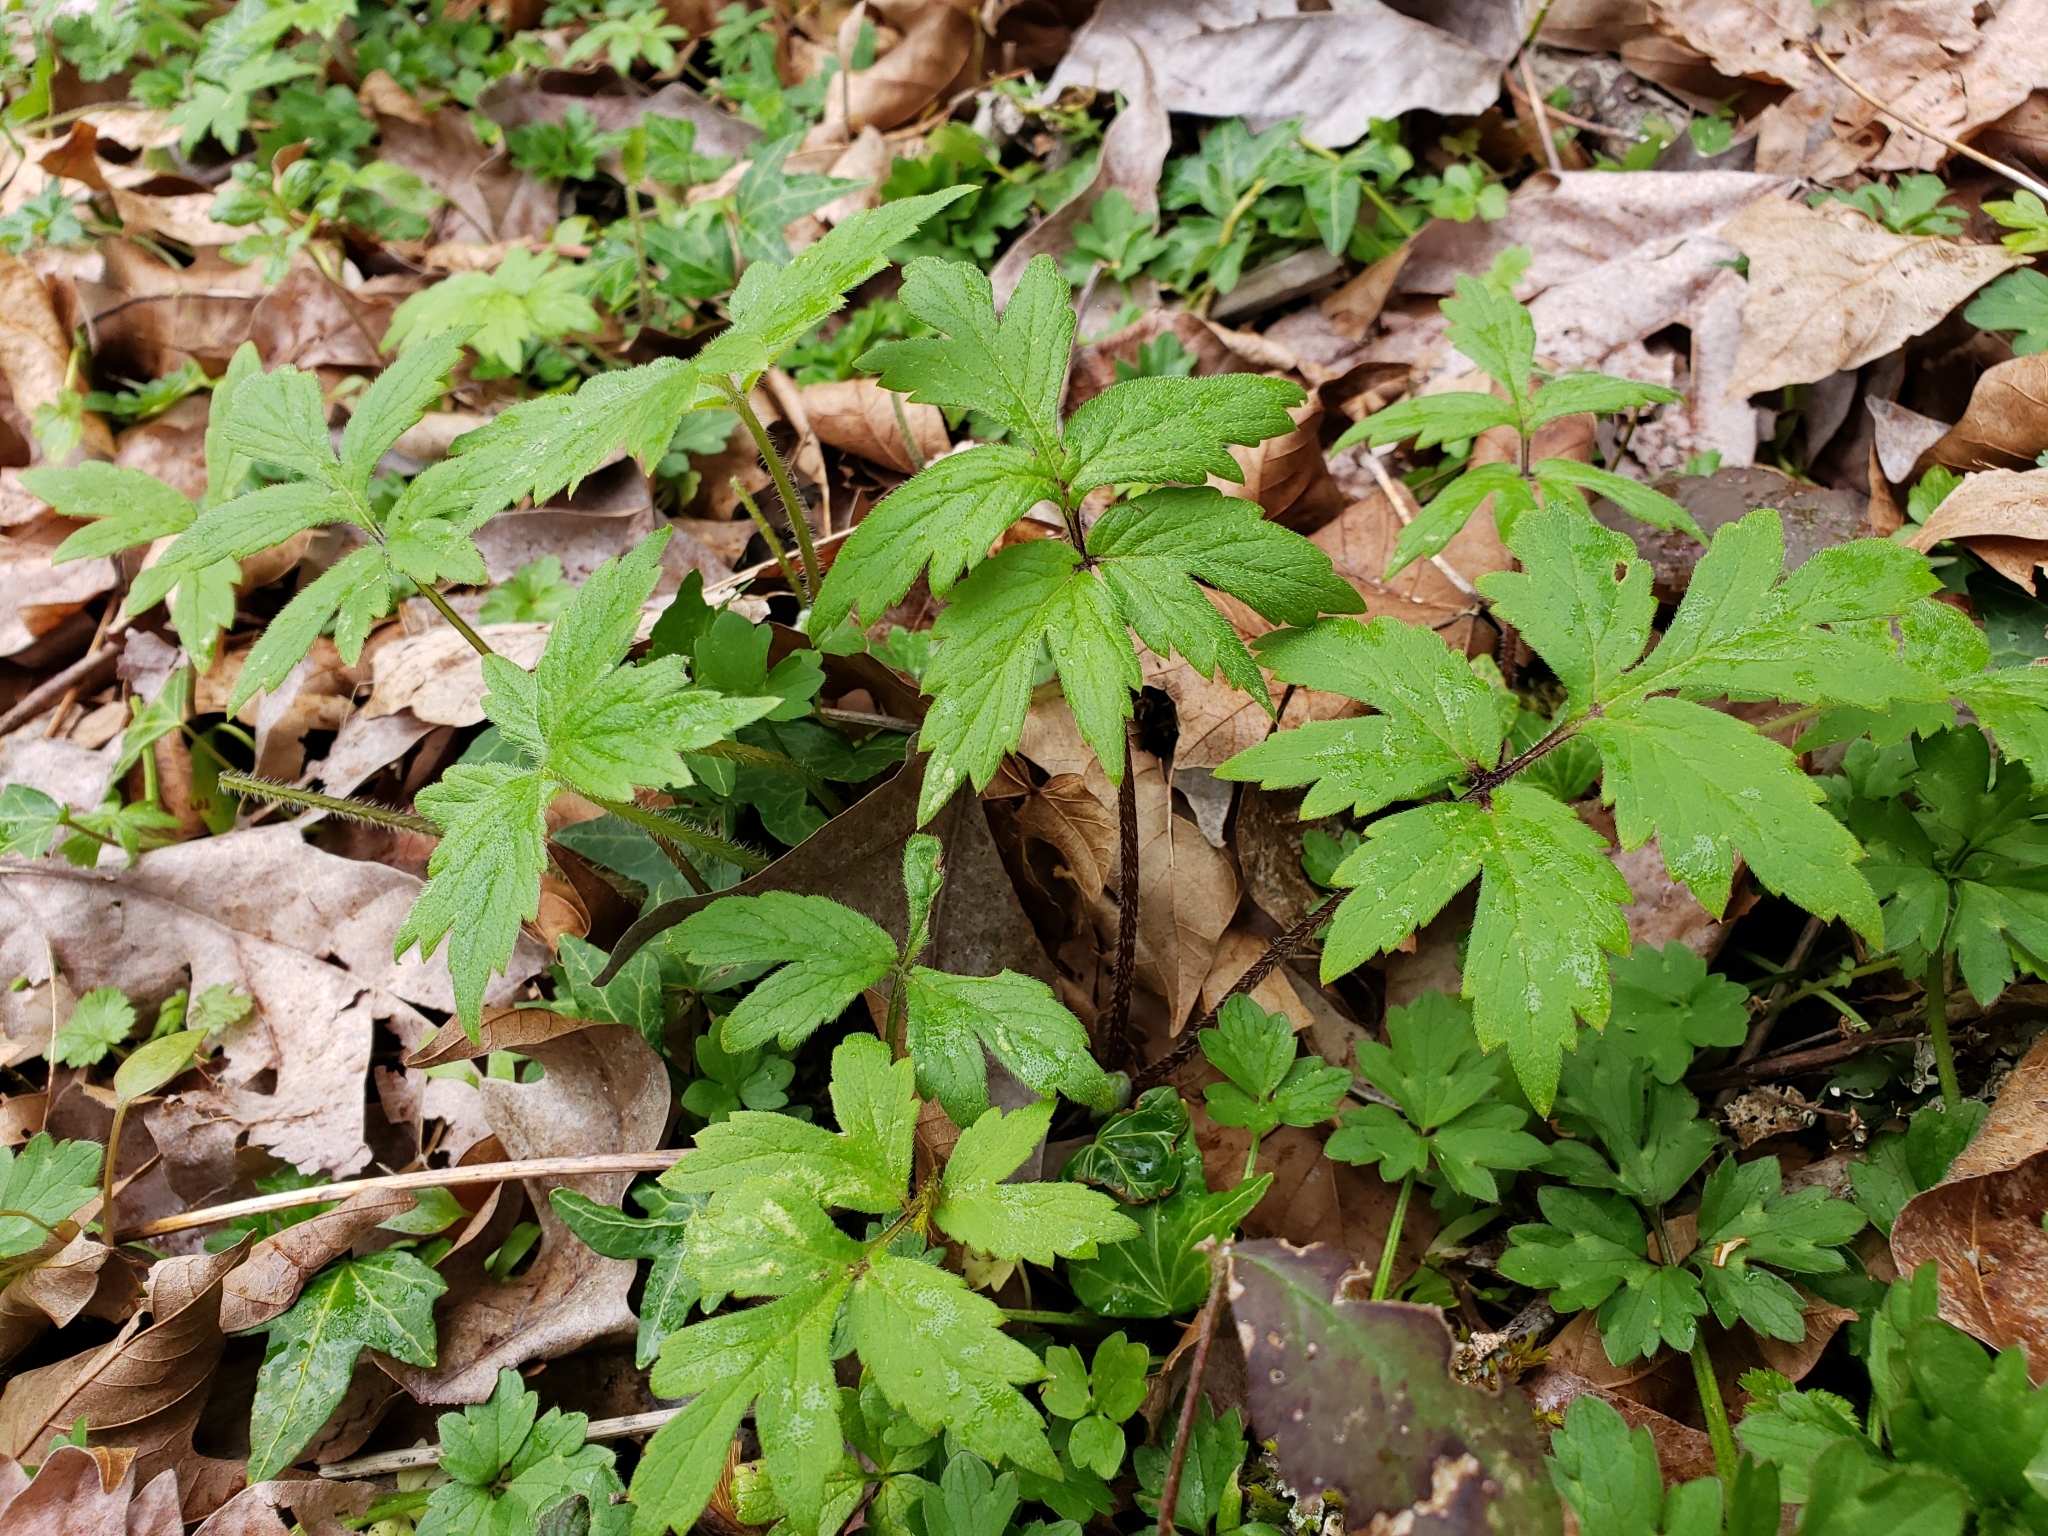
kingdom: Plantae
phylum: Tracheophyta
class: Magnoliopsida
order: Boraginales
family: Hydrophyllaceae
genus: Hydrophyllum
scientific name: Hydrophyllum tenuipes
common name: Pacific waterleaf
